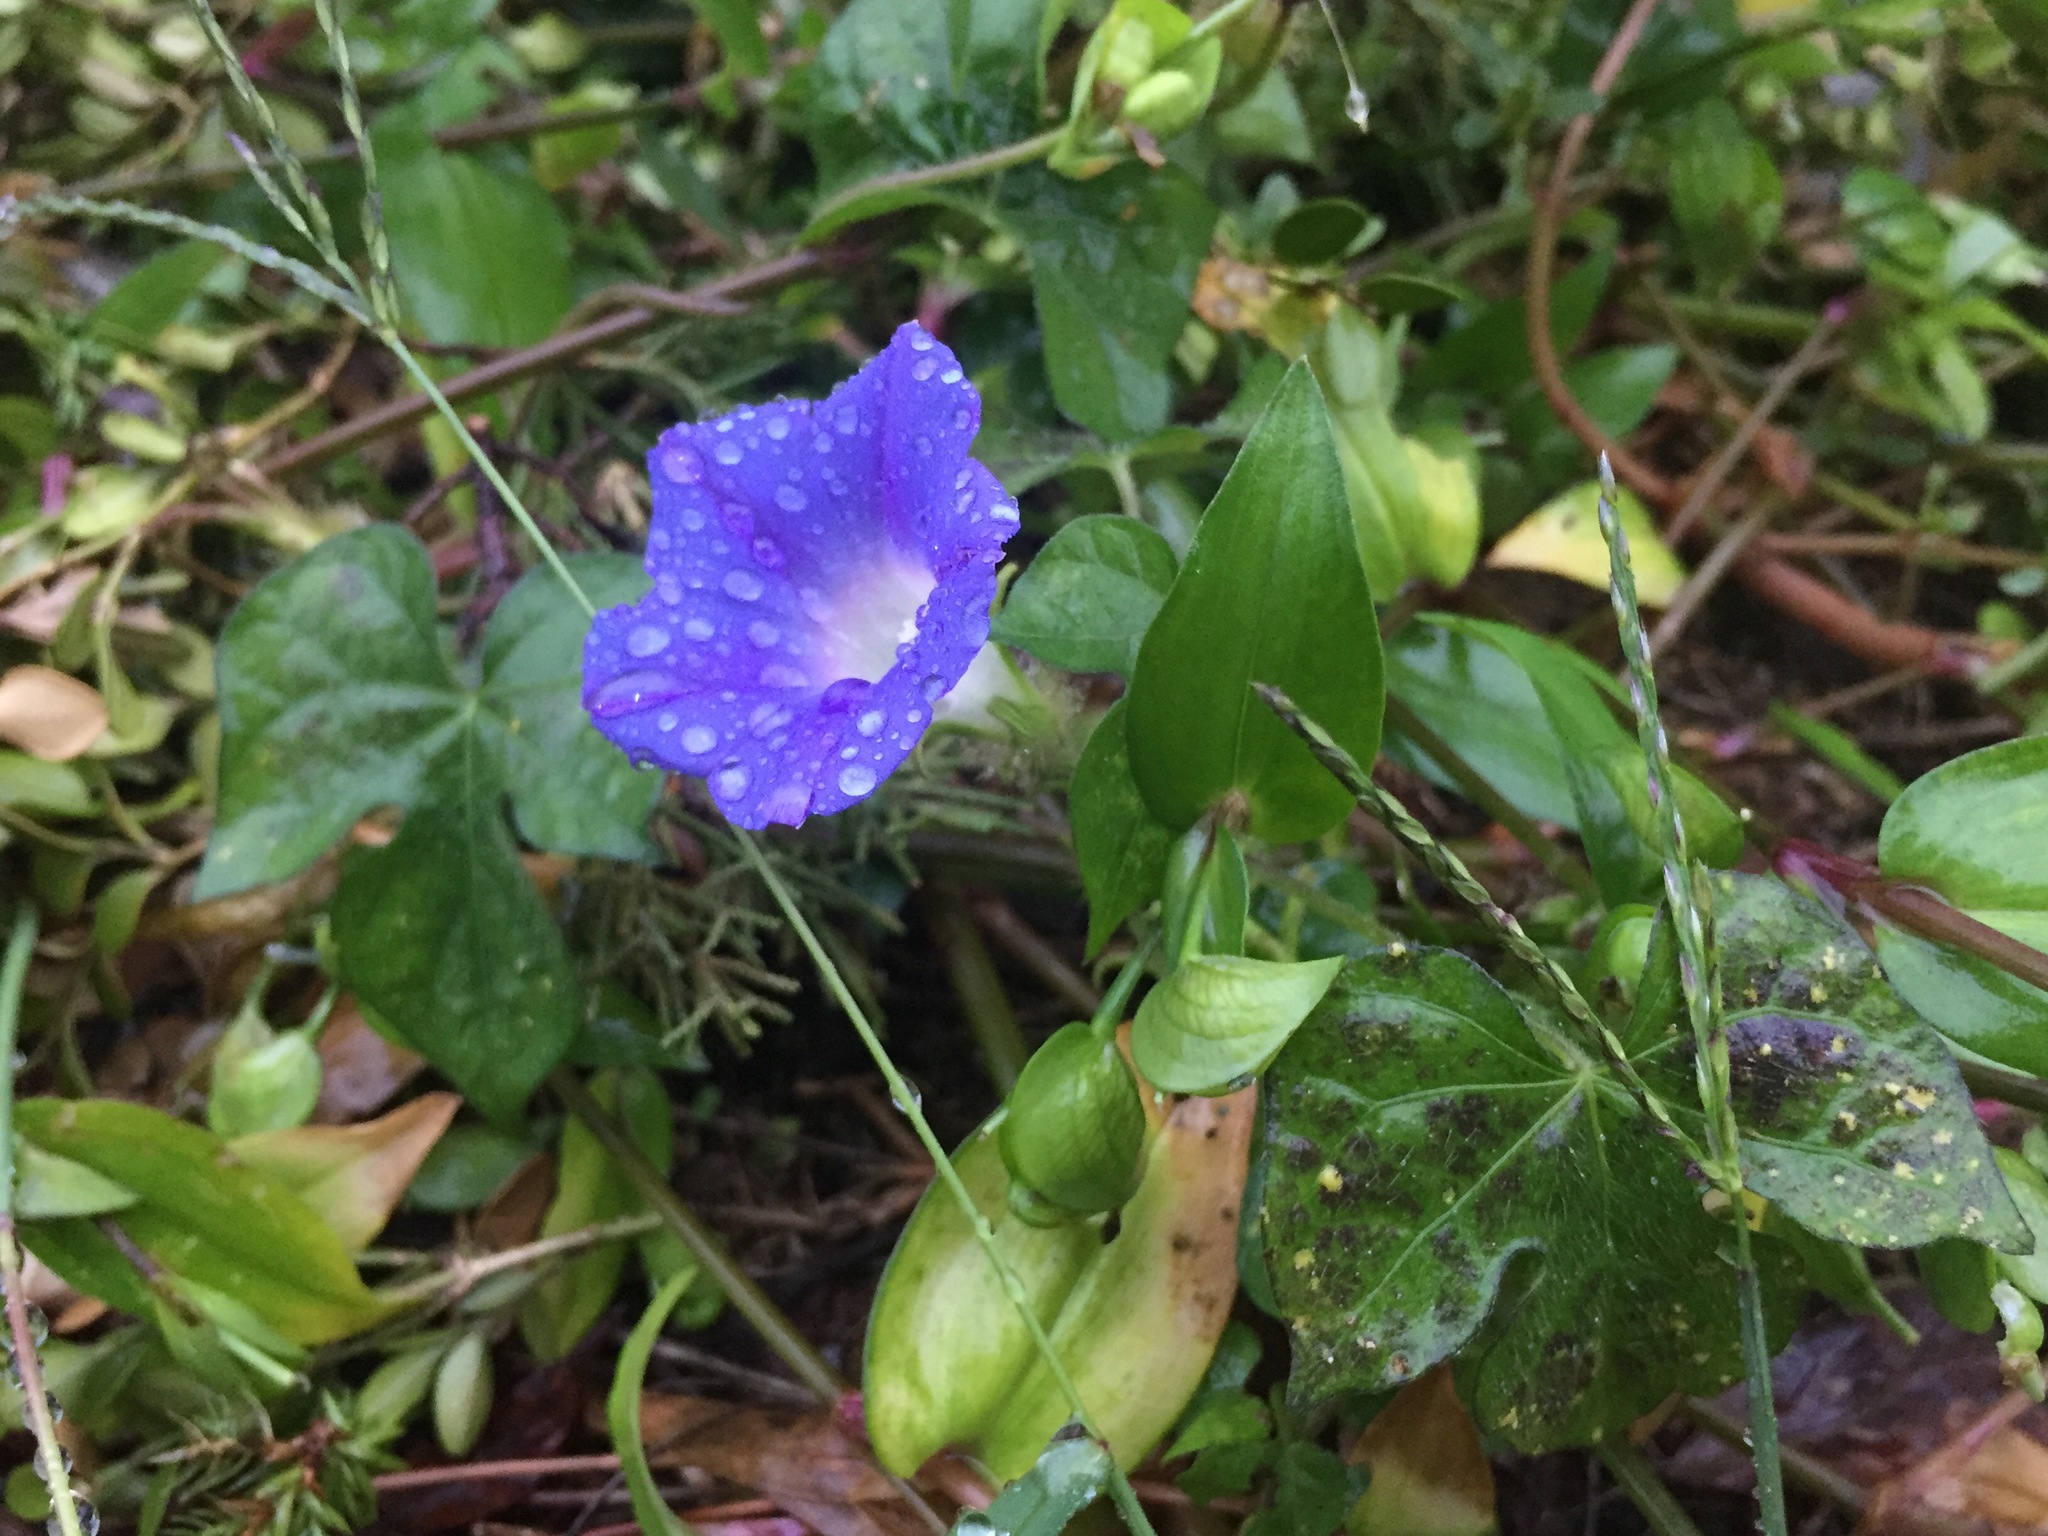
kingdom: Plantae
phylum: Tracheophyta
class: Magnoliopsida
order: Solanales
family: Convolvulaceae
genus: Ipomoea
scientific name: Ipomoea hederacea
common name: Ivy-leaved morning-glory
